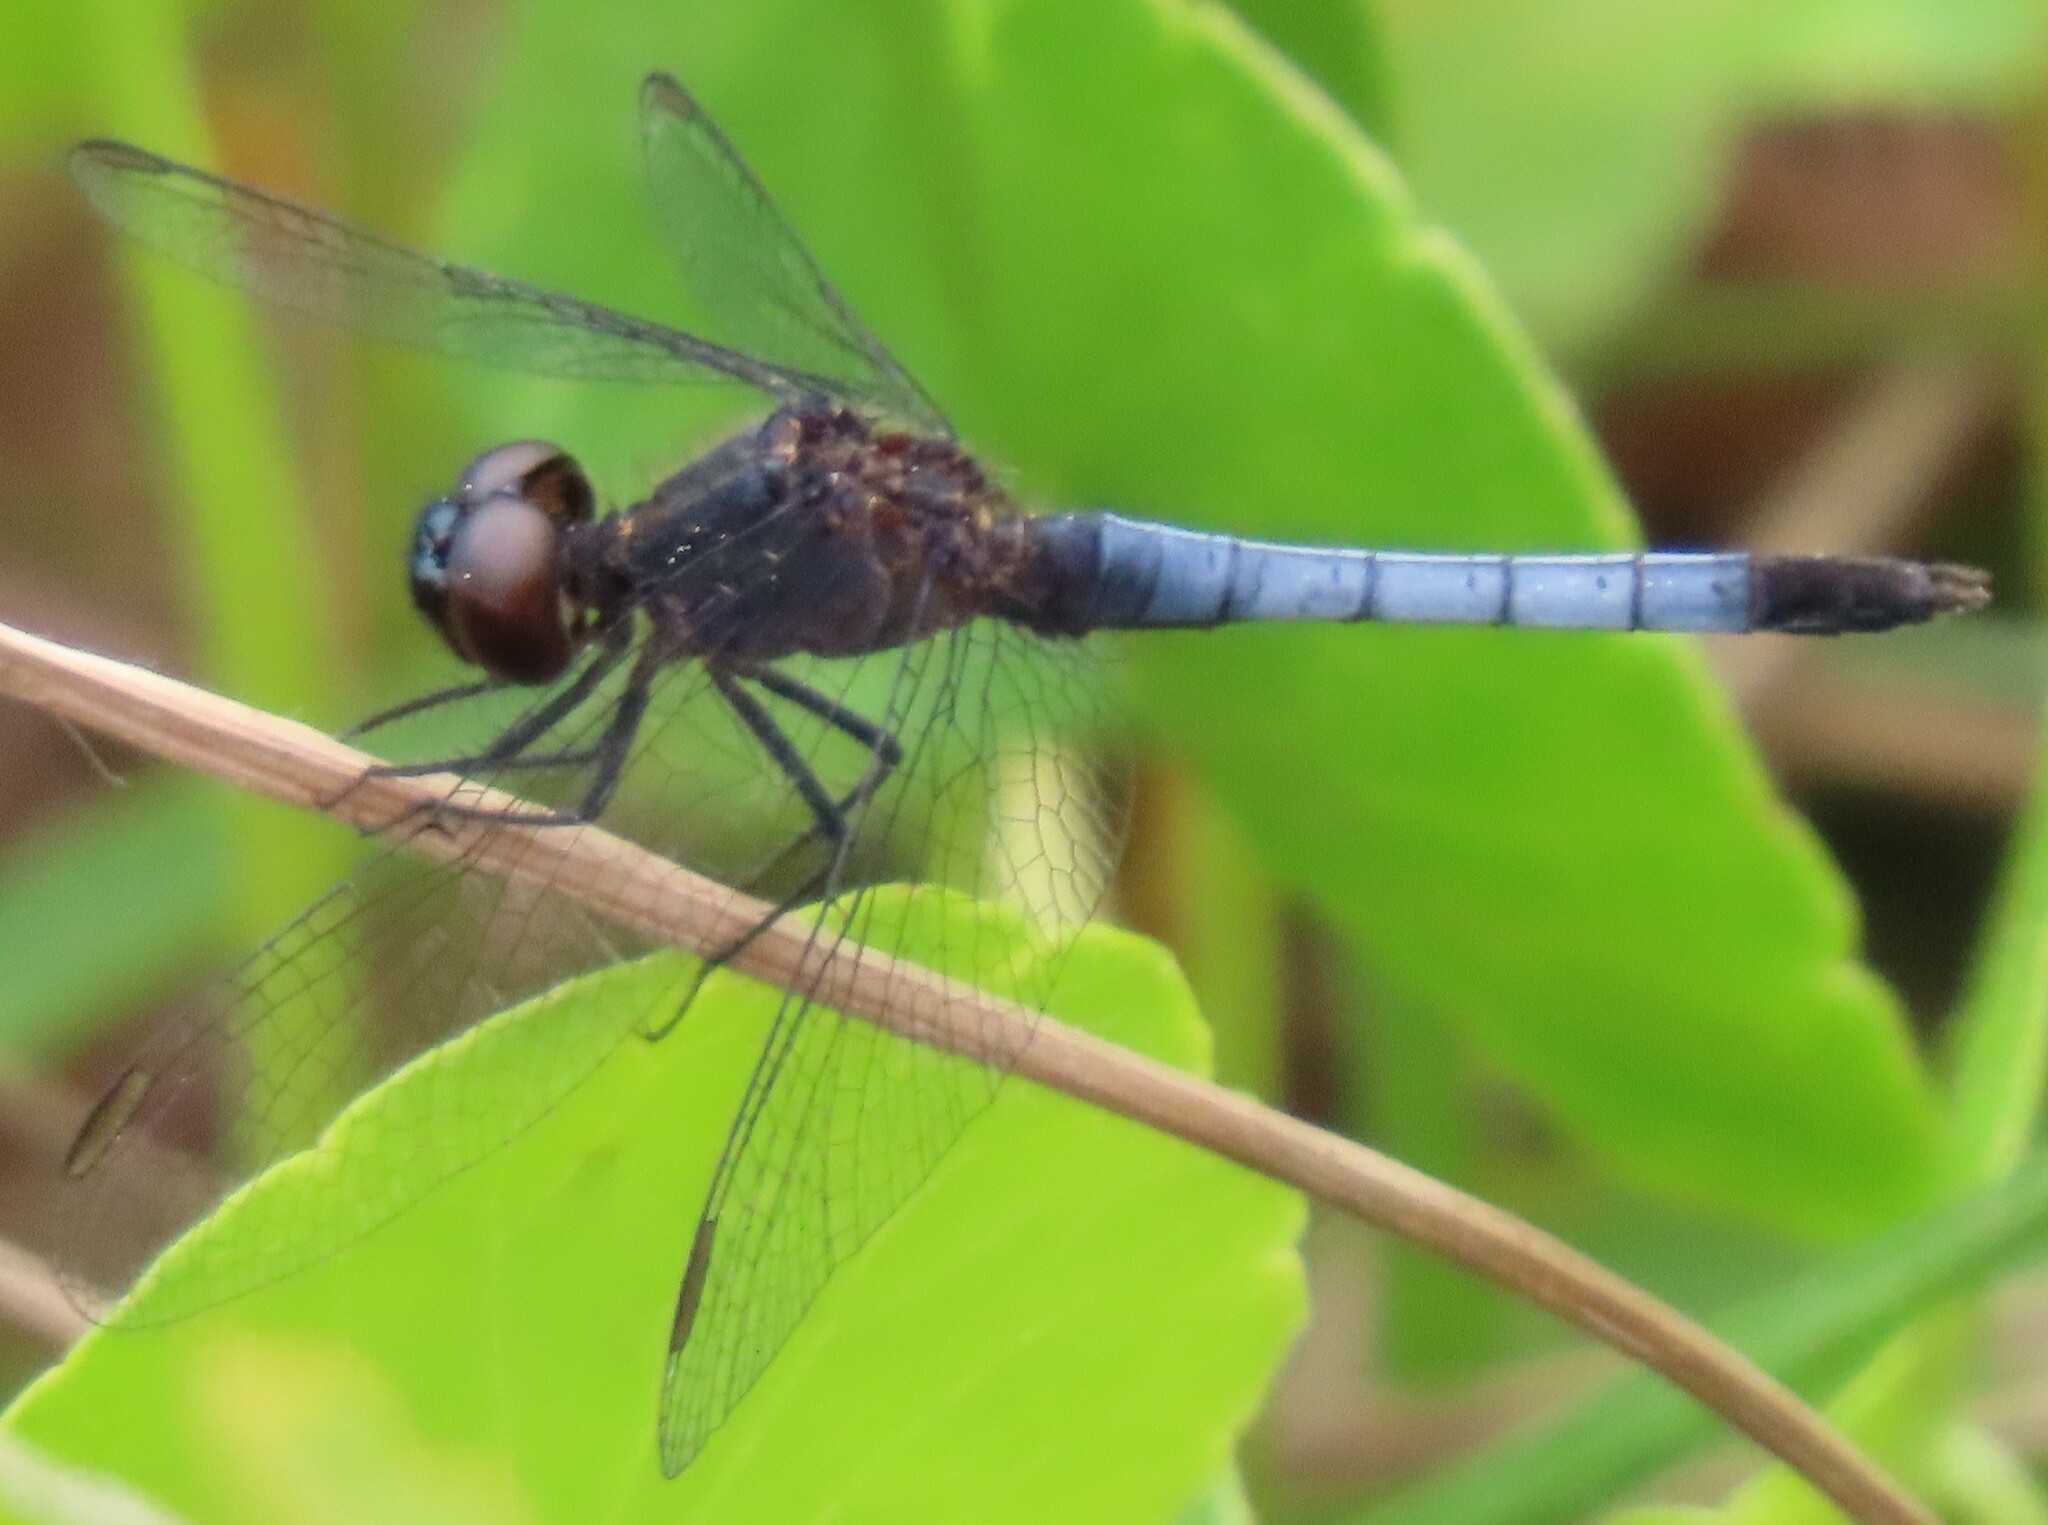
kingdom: Animalia
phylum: Arthropoda
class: Insecta
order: Odonata
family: Libellulidae
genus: Erythrodiplax
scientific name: Erythrodiplax minuscula
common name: Little blue dragonlet
